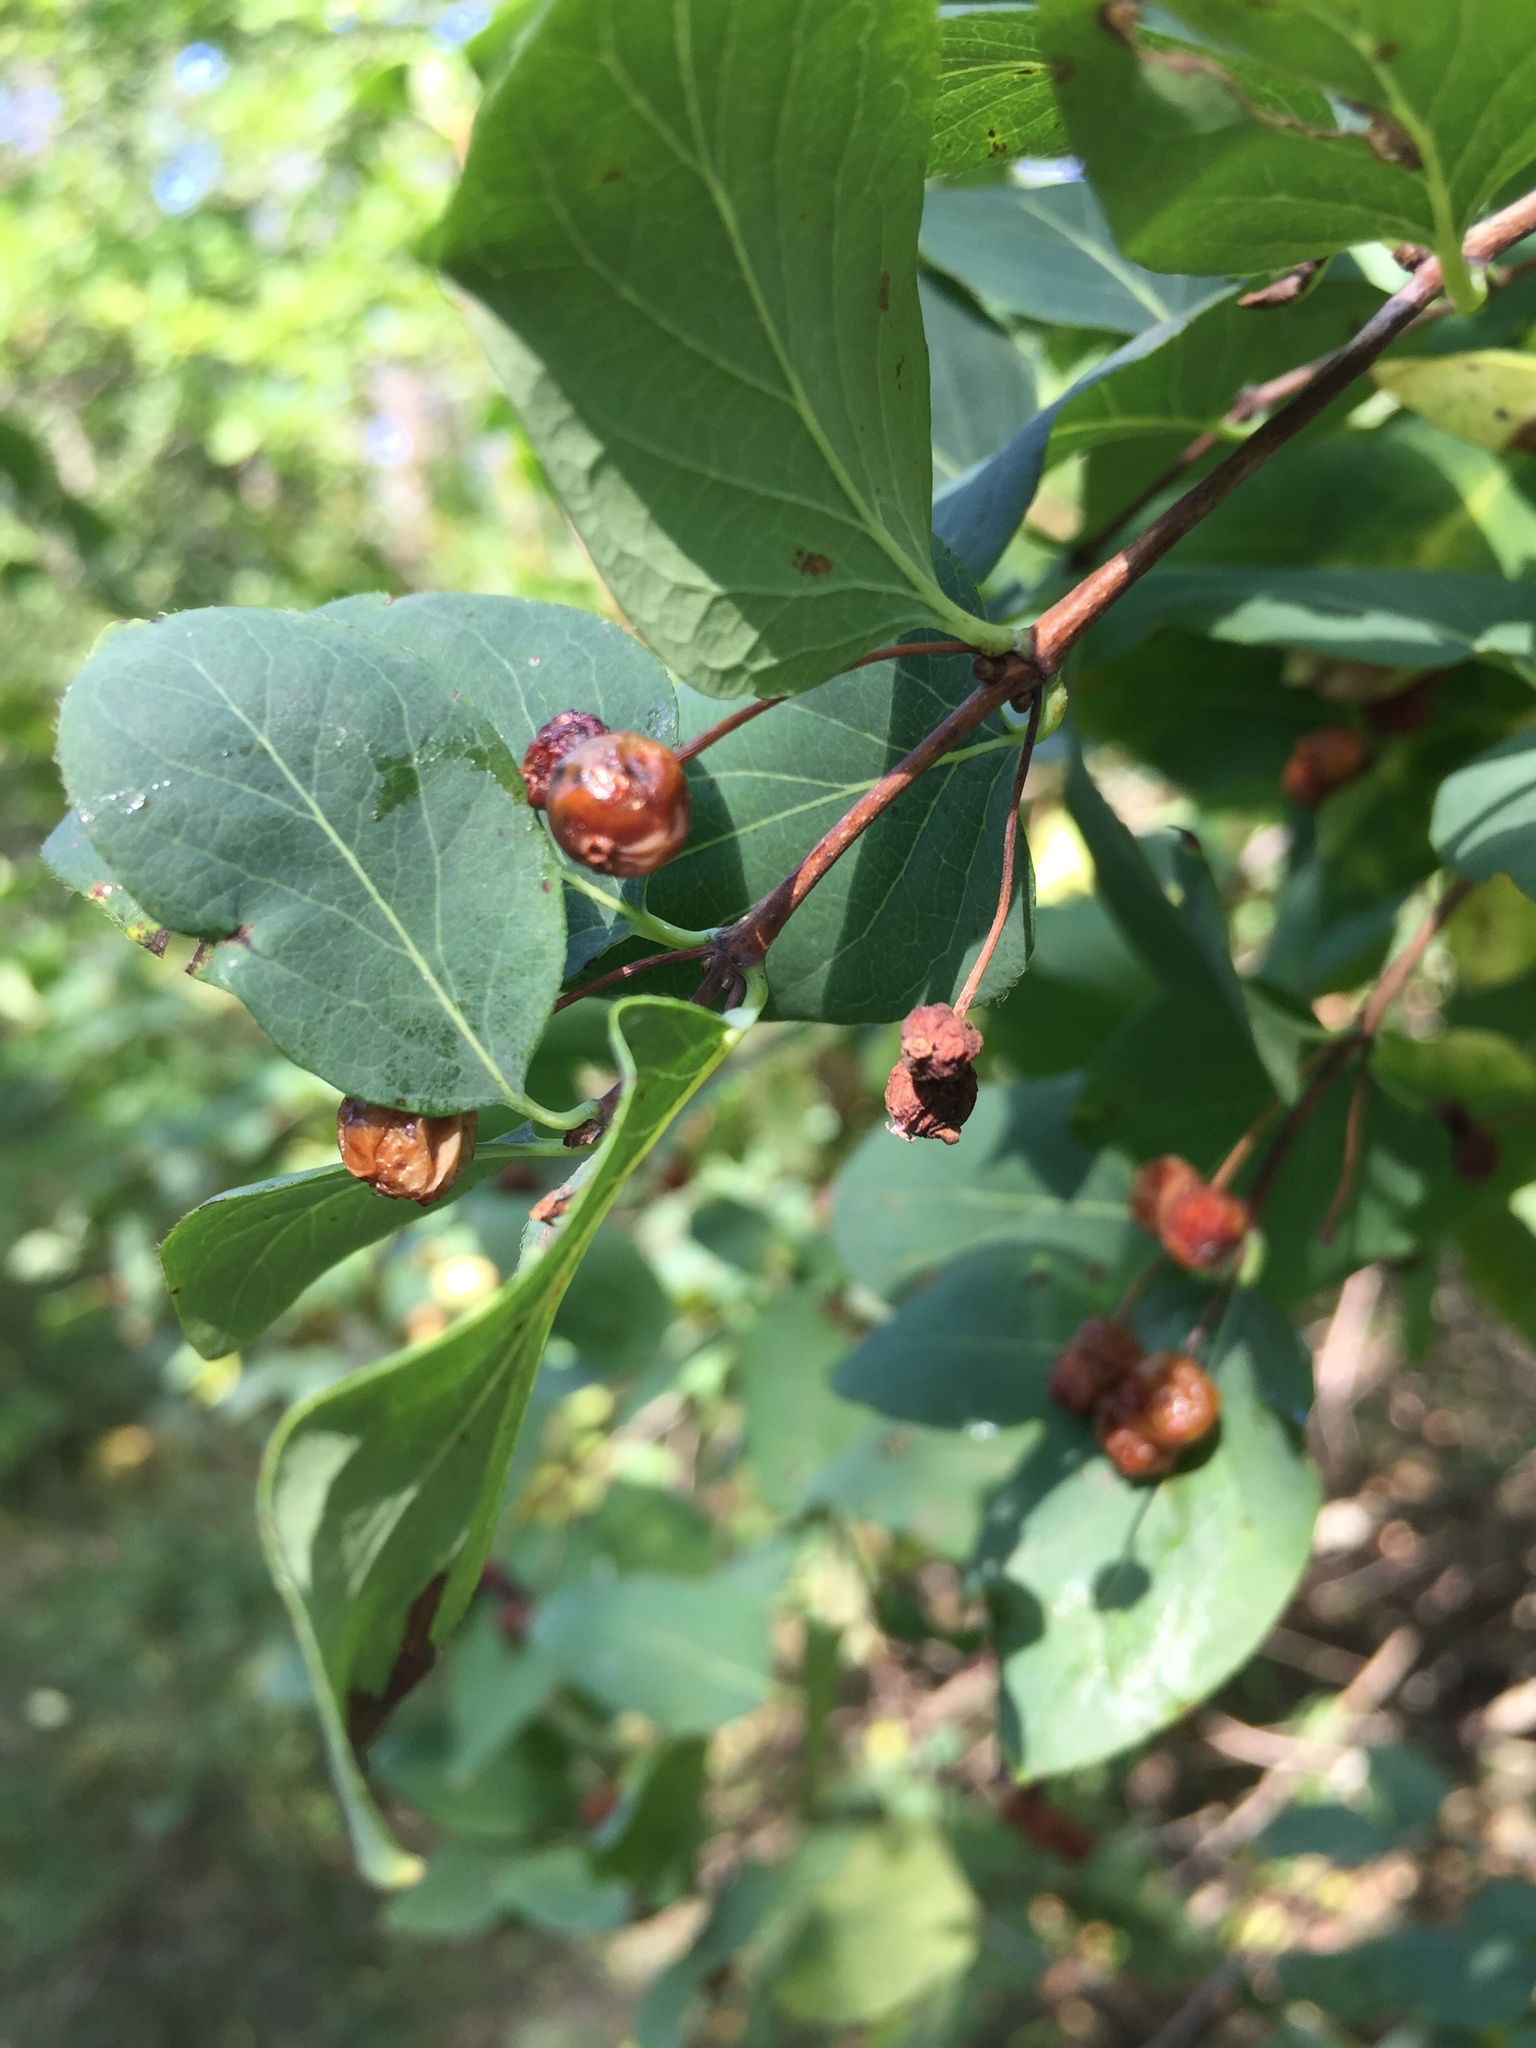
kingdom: Plantae
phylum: Tracheophyta
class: Magnoliopsida
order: Dipsacales
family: Caprifoliaceae
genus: Lonicera
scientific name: Lonicera tatarica
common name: Tatarian honeysuckle
